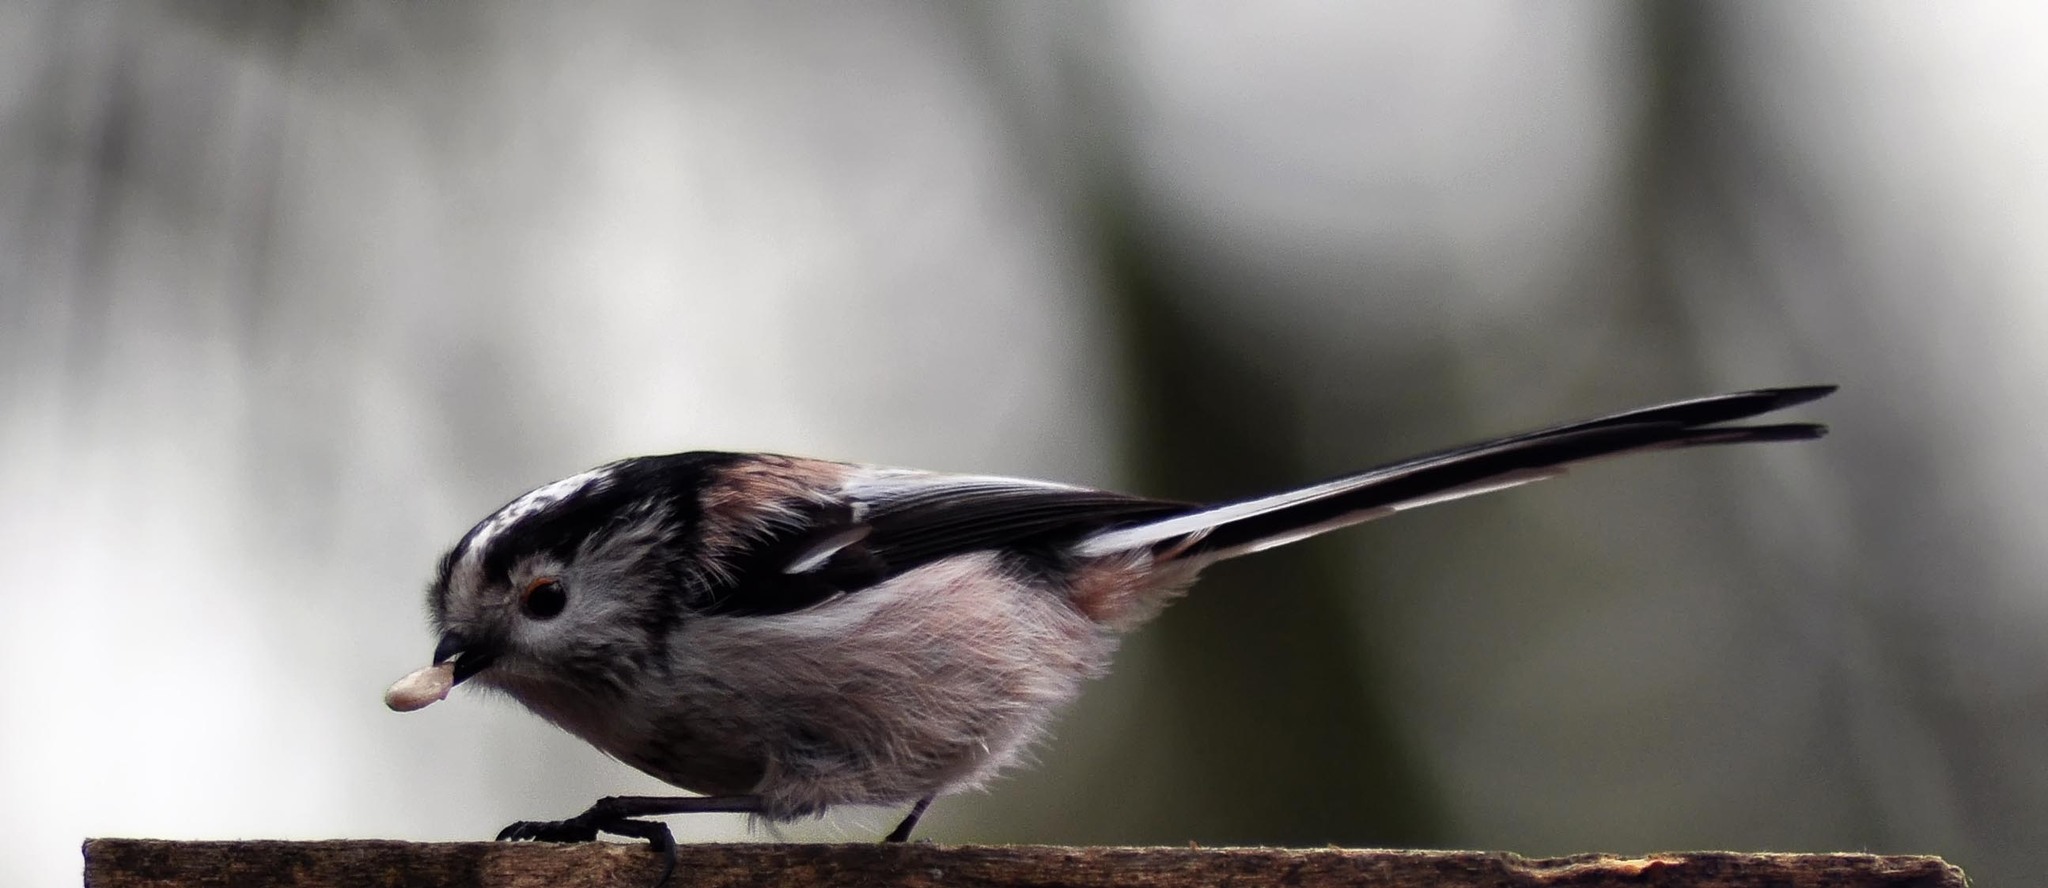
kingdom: Animalia
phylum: Chordata
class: Aves
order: Passeriformes
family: Aegithalidae
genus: Aegithalos
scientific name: Aegithalos caudatus
